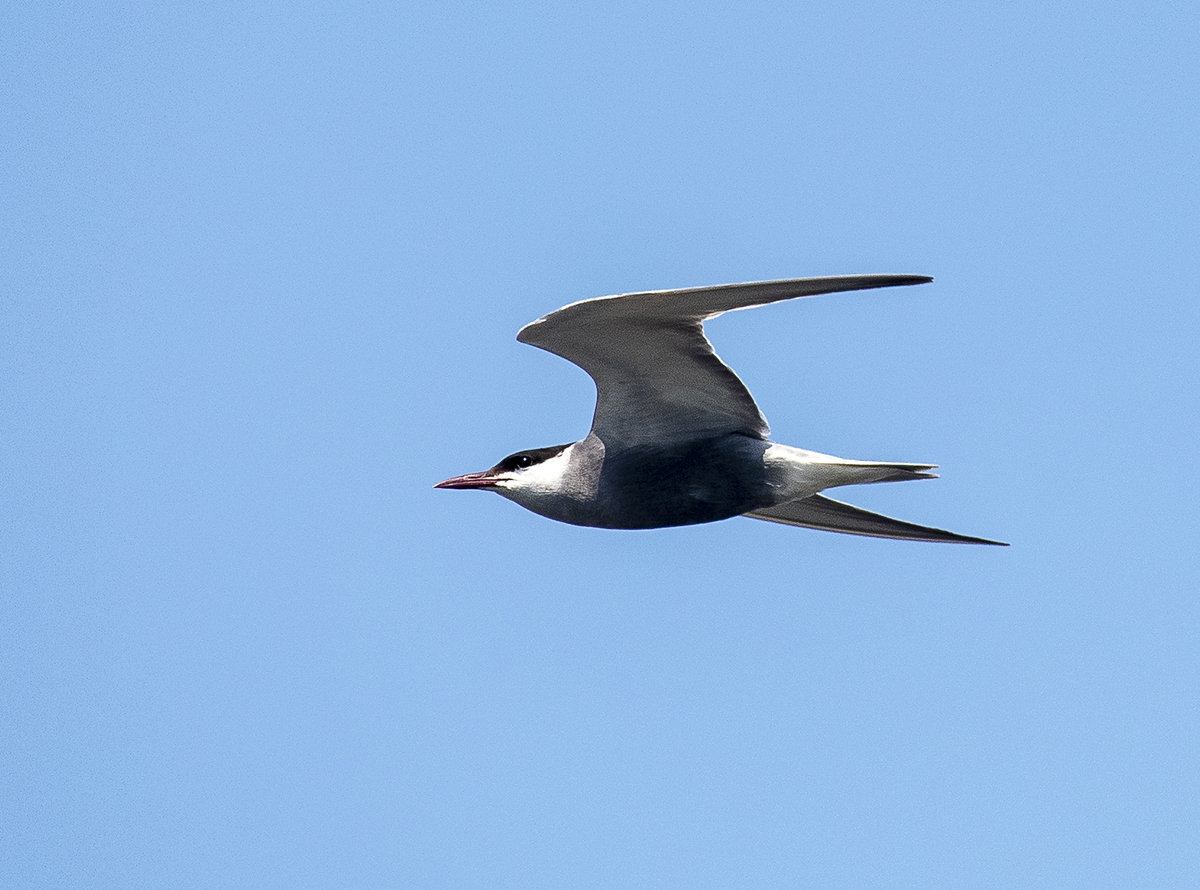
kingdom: Animalia
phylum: Chordata
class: Aves
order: Charadriiformes
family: Laridae
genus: Chlidonias
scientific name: Chlidonias hybrida
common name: Whiskered tern
